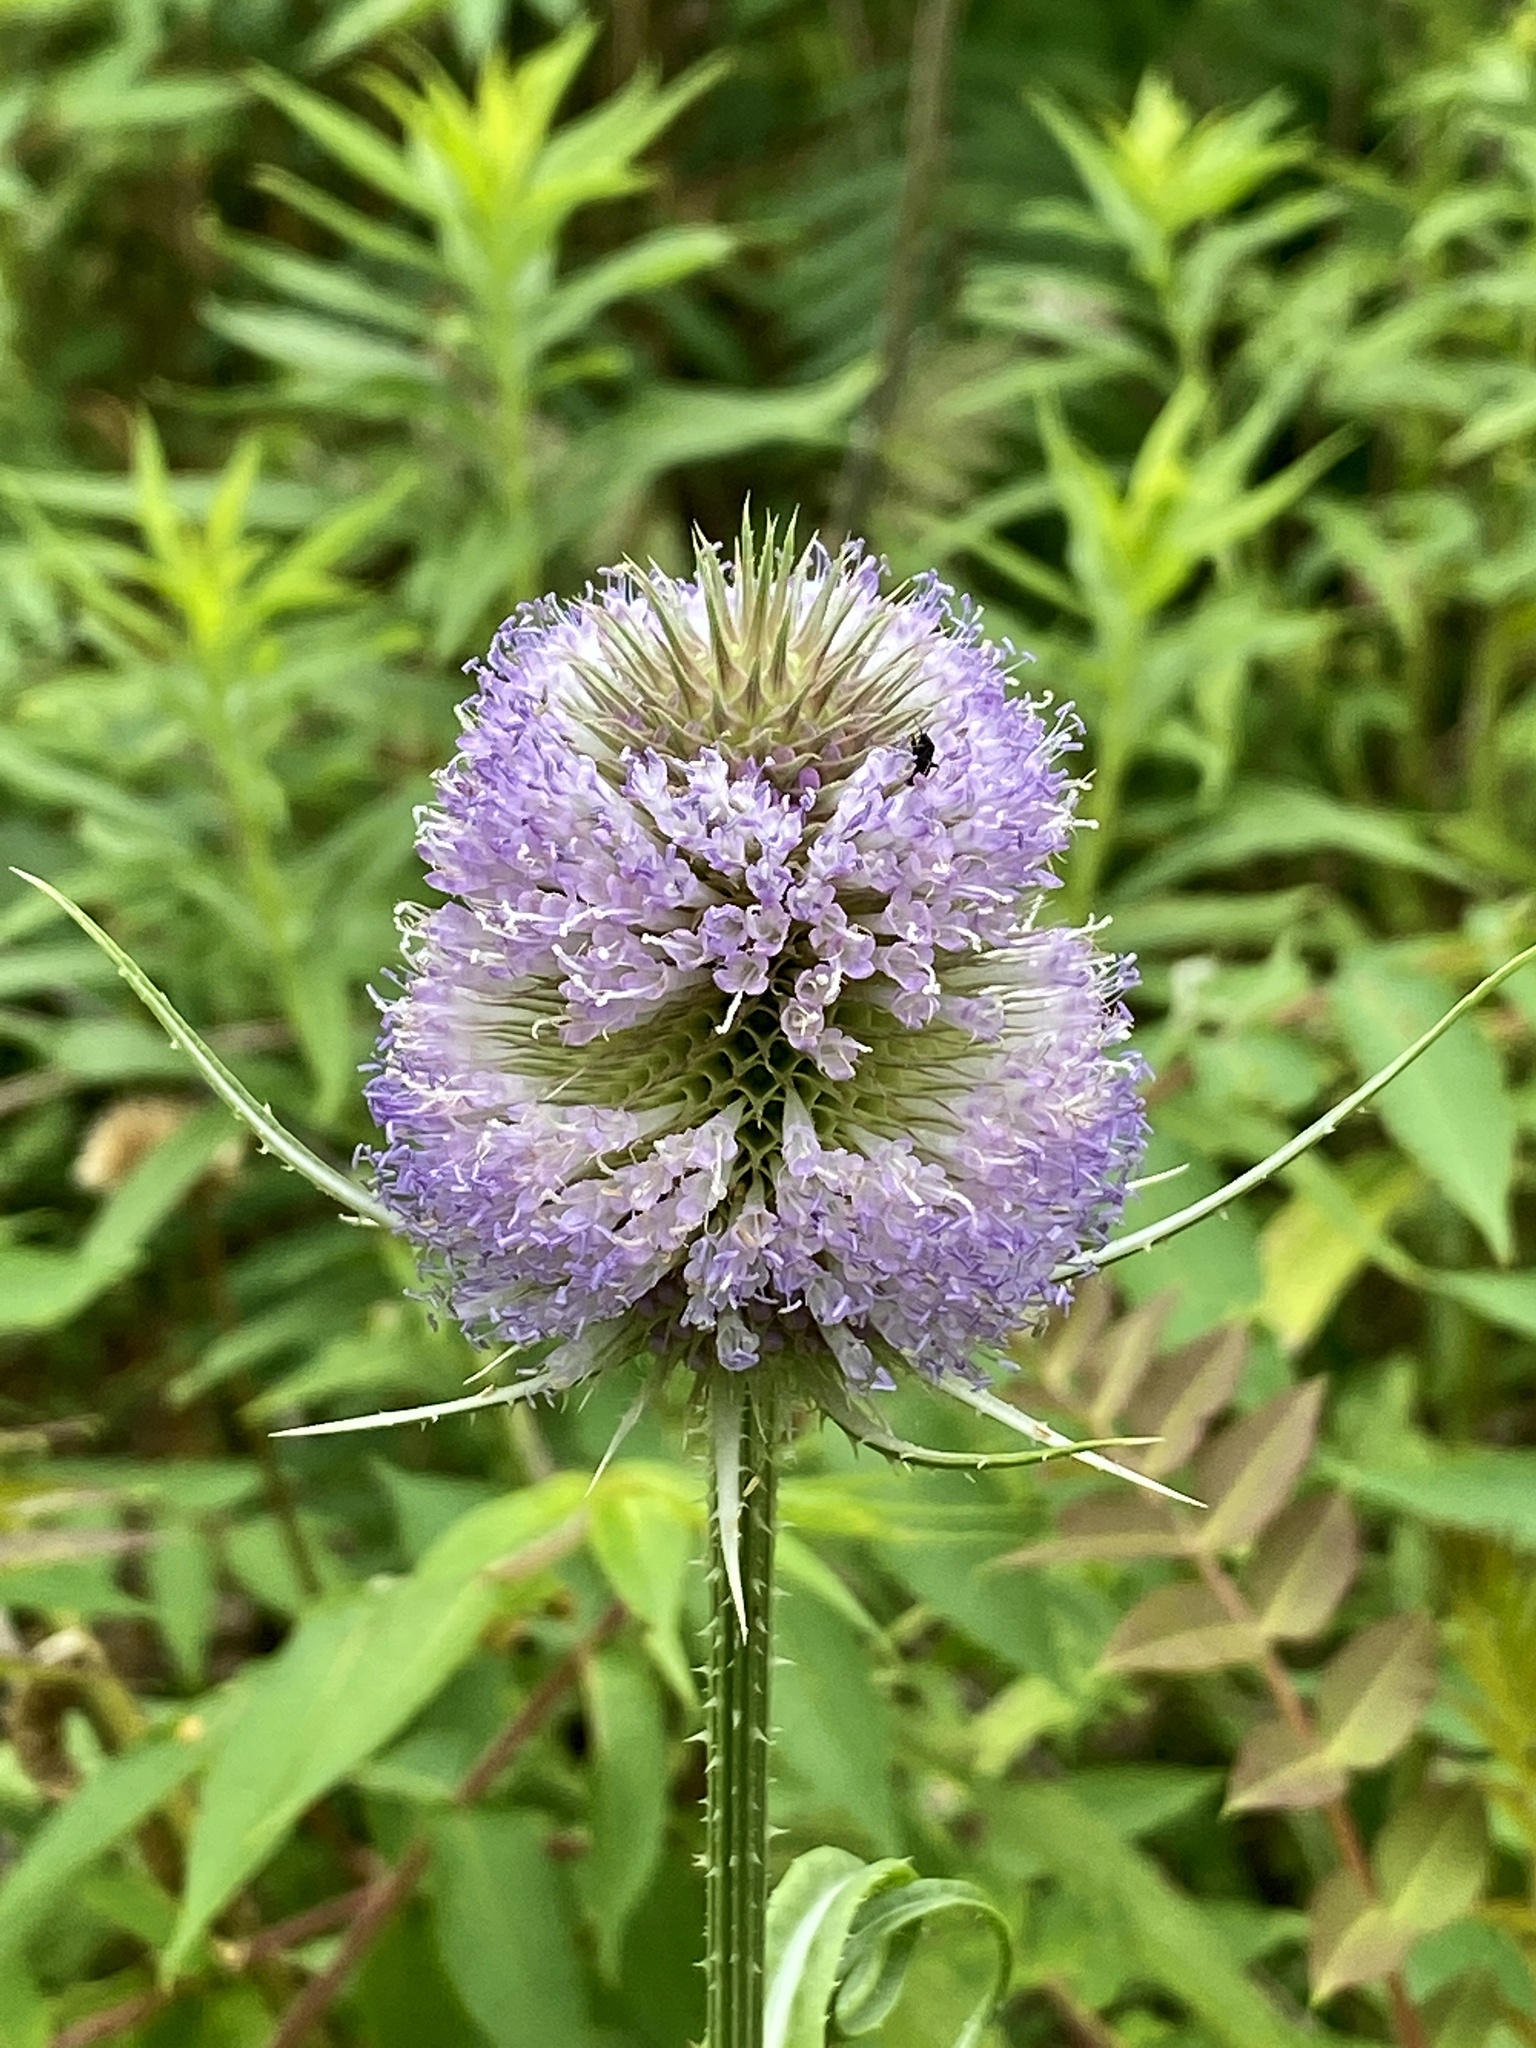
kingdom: Plantae
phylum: Tracheophyta
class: Magnoliopsida
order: Dipsacales
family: Caprifoliaceae
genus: Dipsacus
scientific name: Dipsacus fullonum
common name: Teasel
